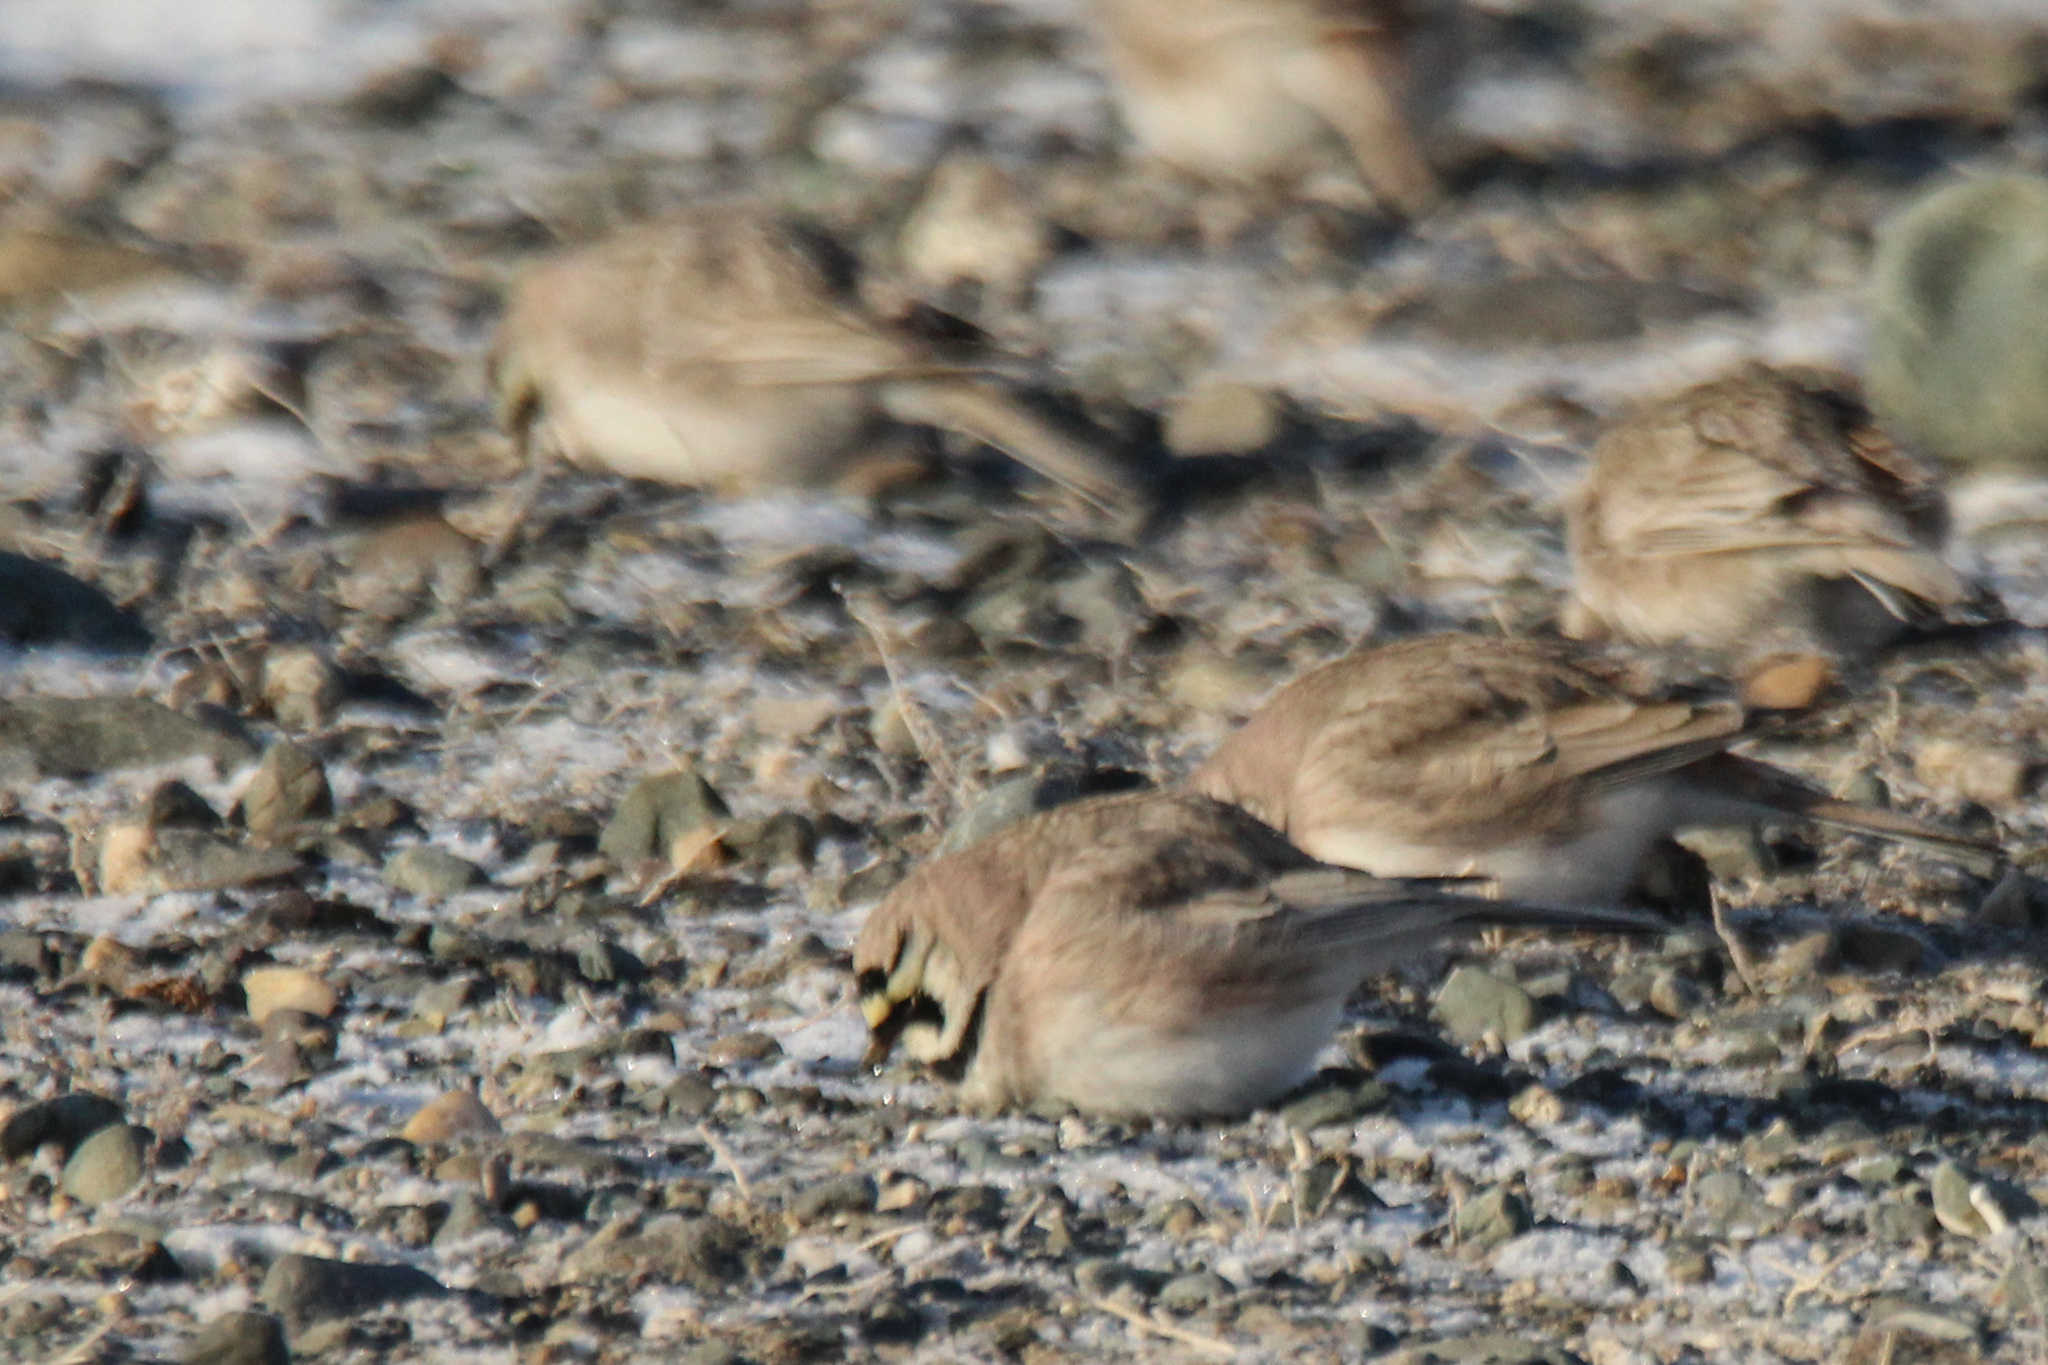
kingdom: Animalia
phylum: Chordata
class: Aves
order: Passeriformes
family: Alaudidae
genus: Eremophila
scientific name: Eremophila alpestris
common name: Horned lark
